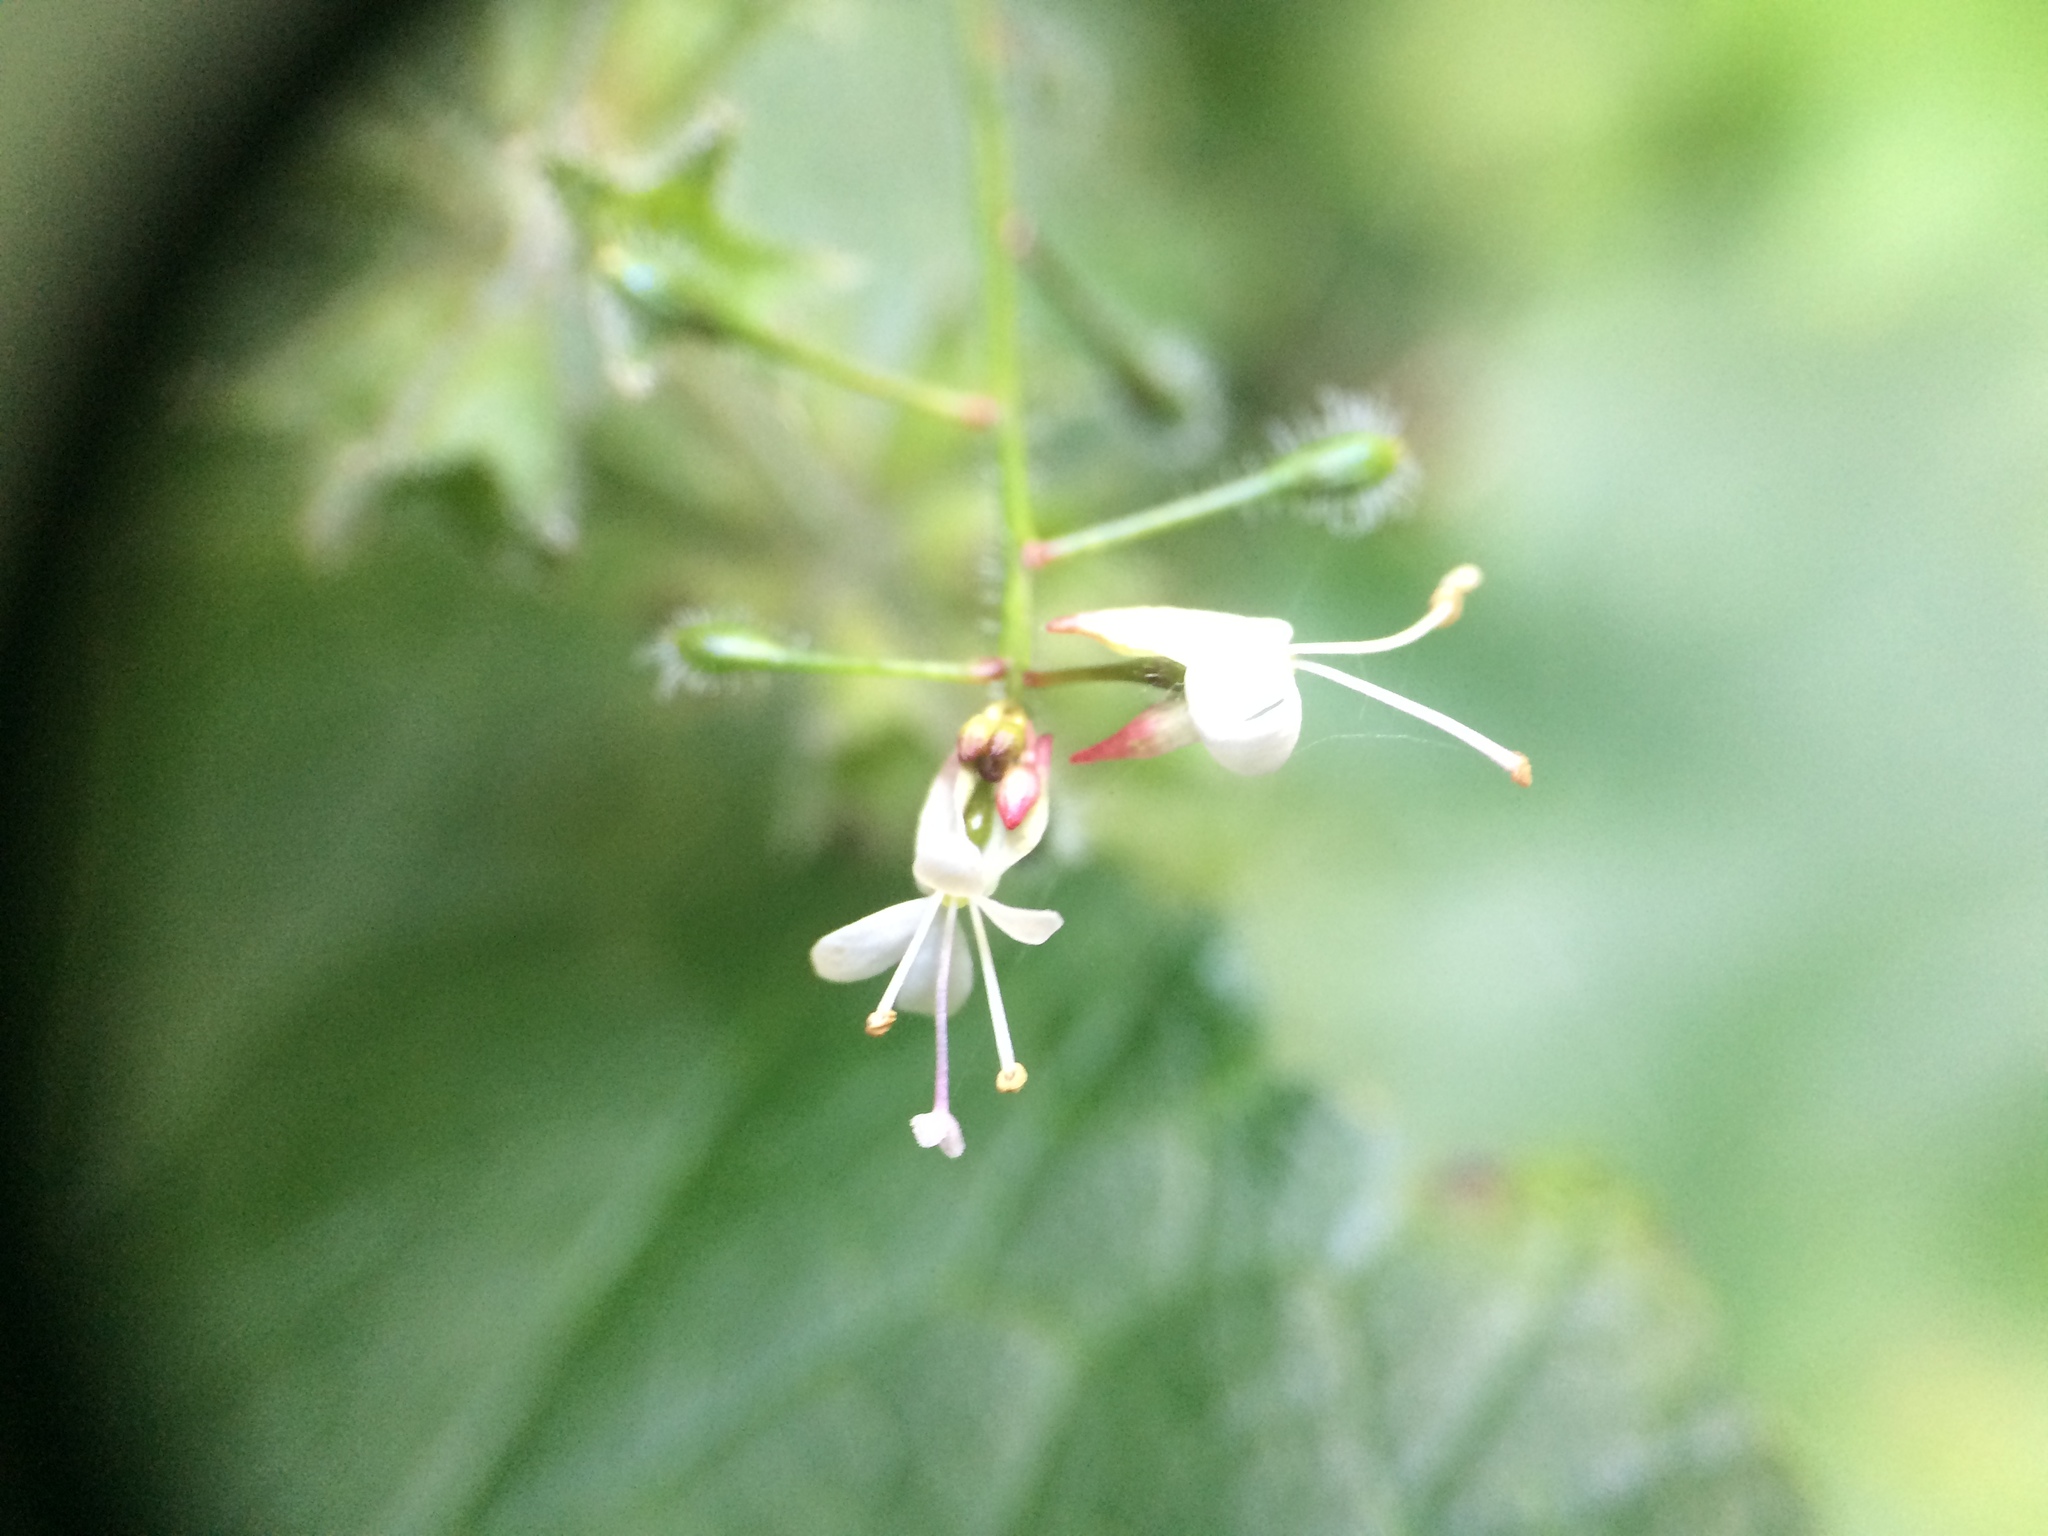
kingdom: Plantae
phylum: Tracheophyta
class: Magnoliopsida
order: Myrtales
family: Onagraceae
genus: Circaea
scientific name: Circaea lutetiana
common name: Enchanter's-nightshade
